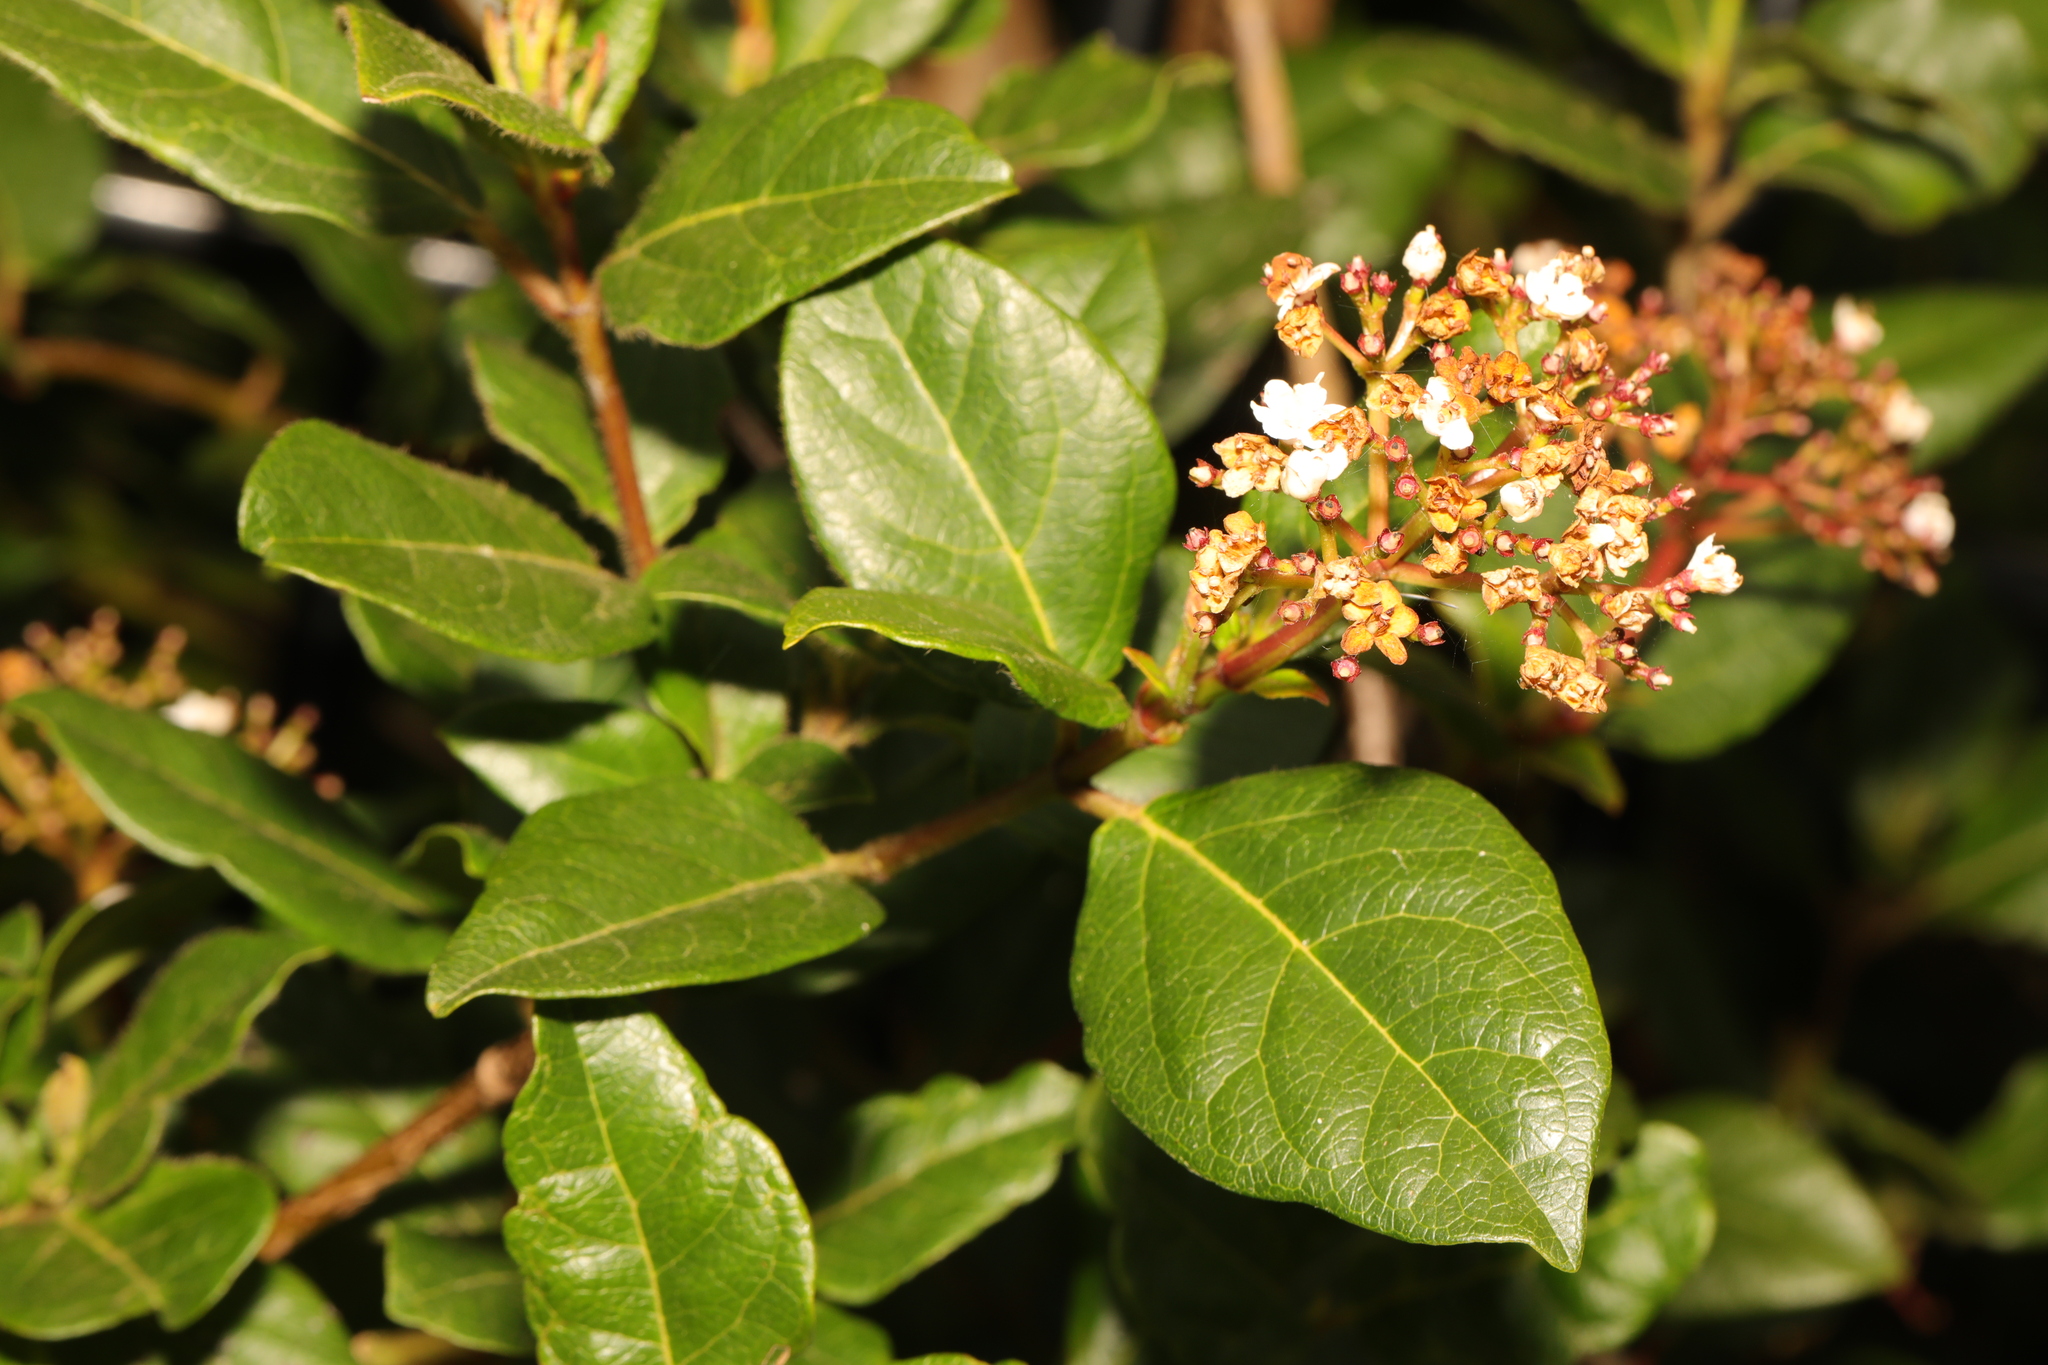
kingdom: Plantae
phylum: Tracheophyta
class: Magnoliopsida
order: Dipsacales
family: Viburnaceae
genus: Viburnum
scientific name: Viburnum tinus
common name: Laurustinus
